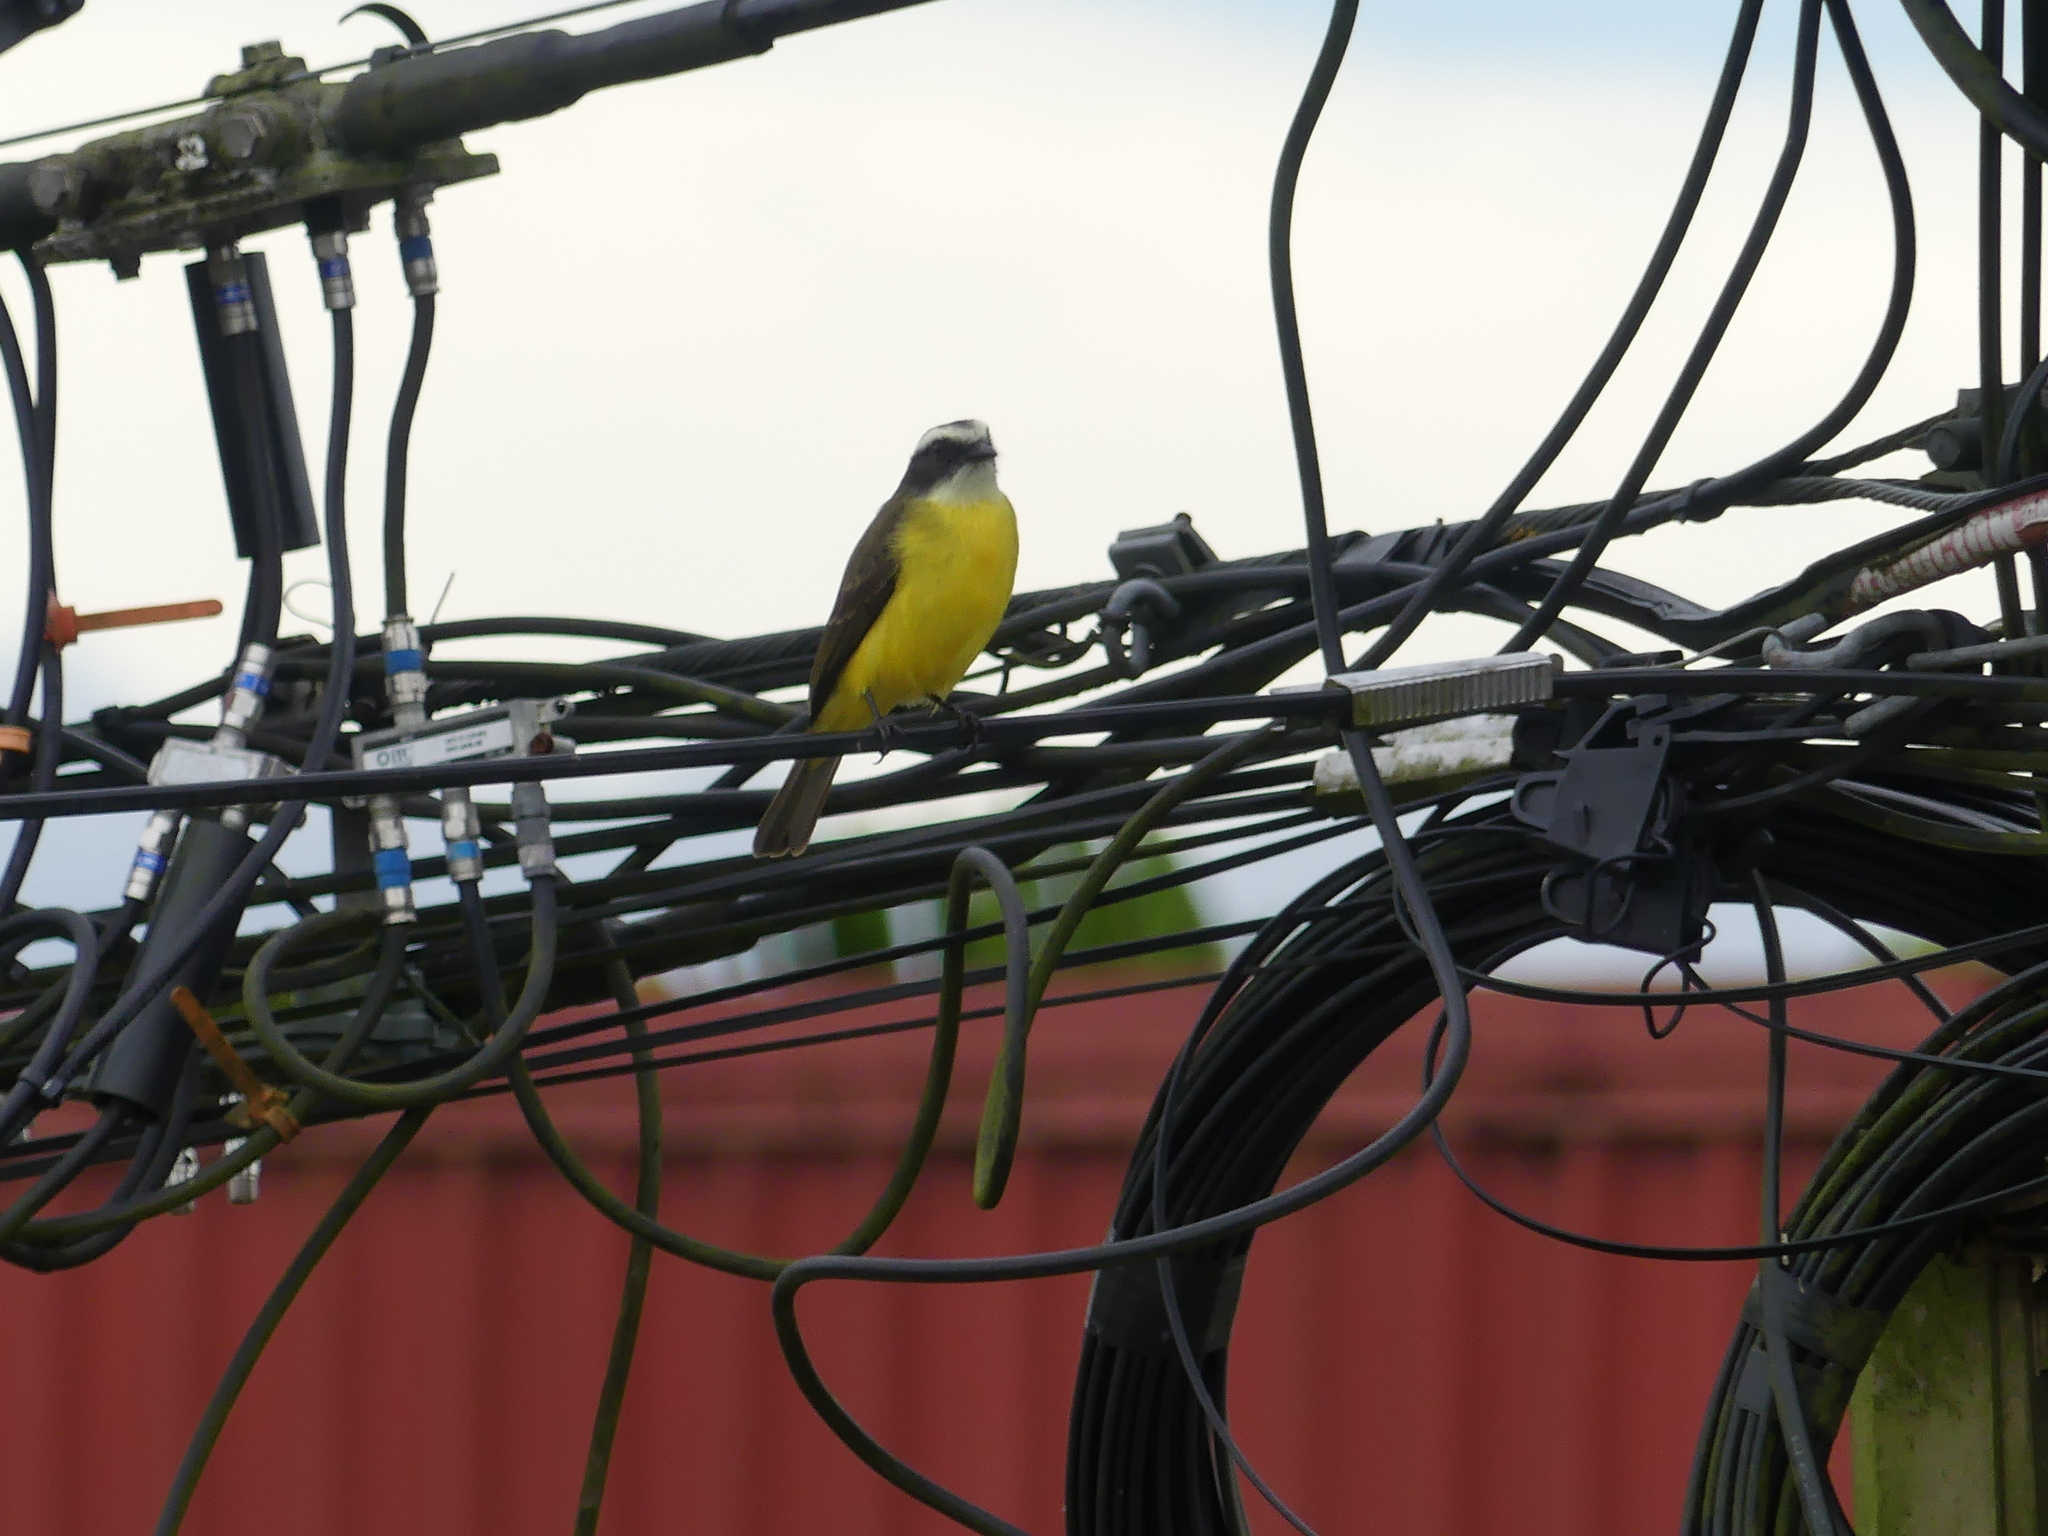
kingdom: Animalia
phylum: Chordata
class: Aves
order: Passeriformes
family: Tyrannidae
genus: Myiozetetes
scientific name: Myiozetetes similis
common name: Social flycatcher
